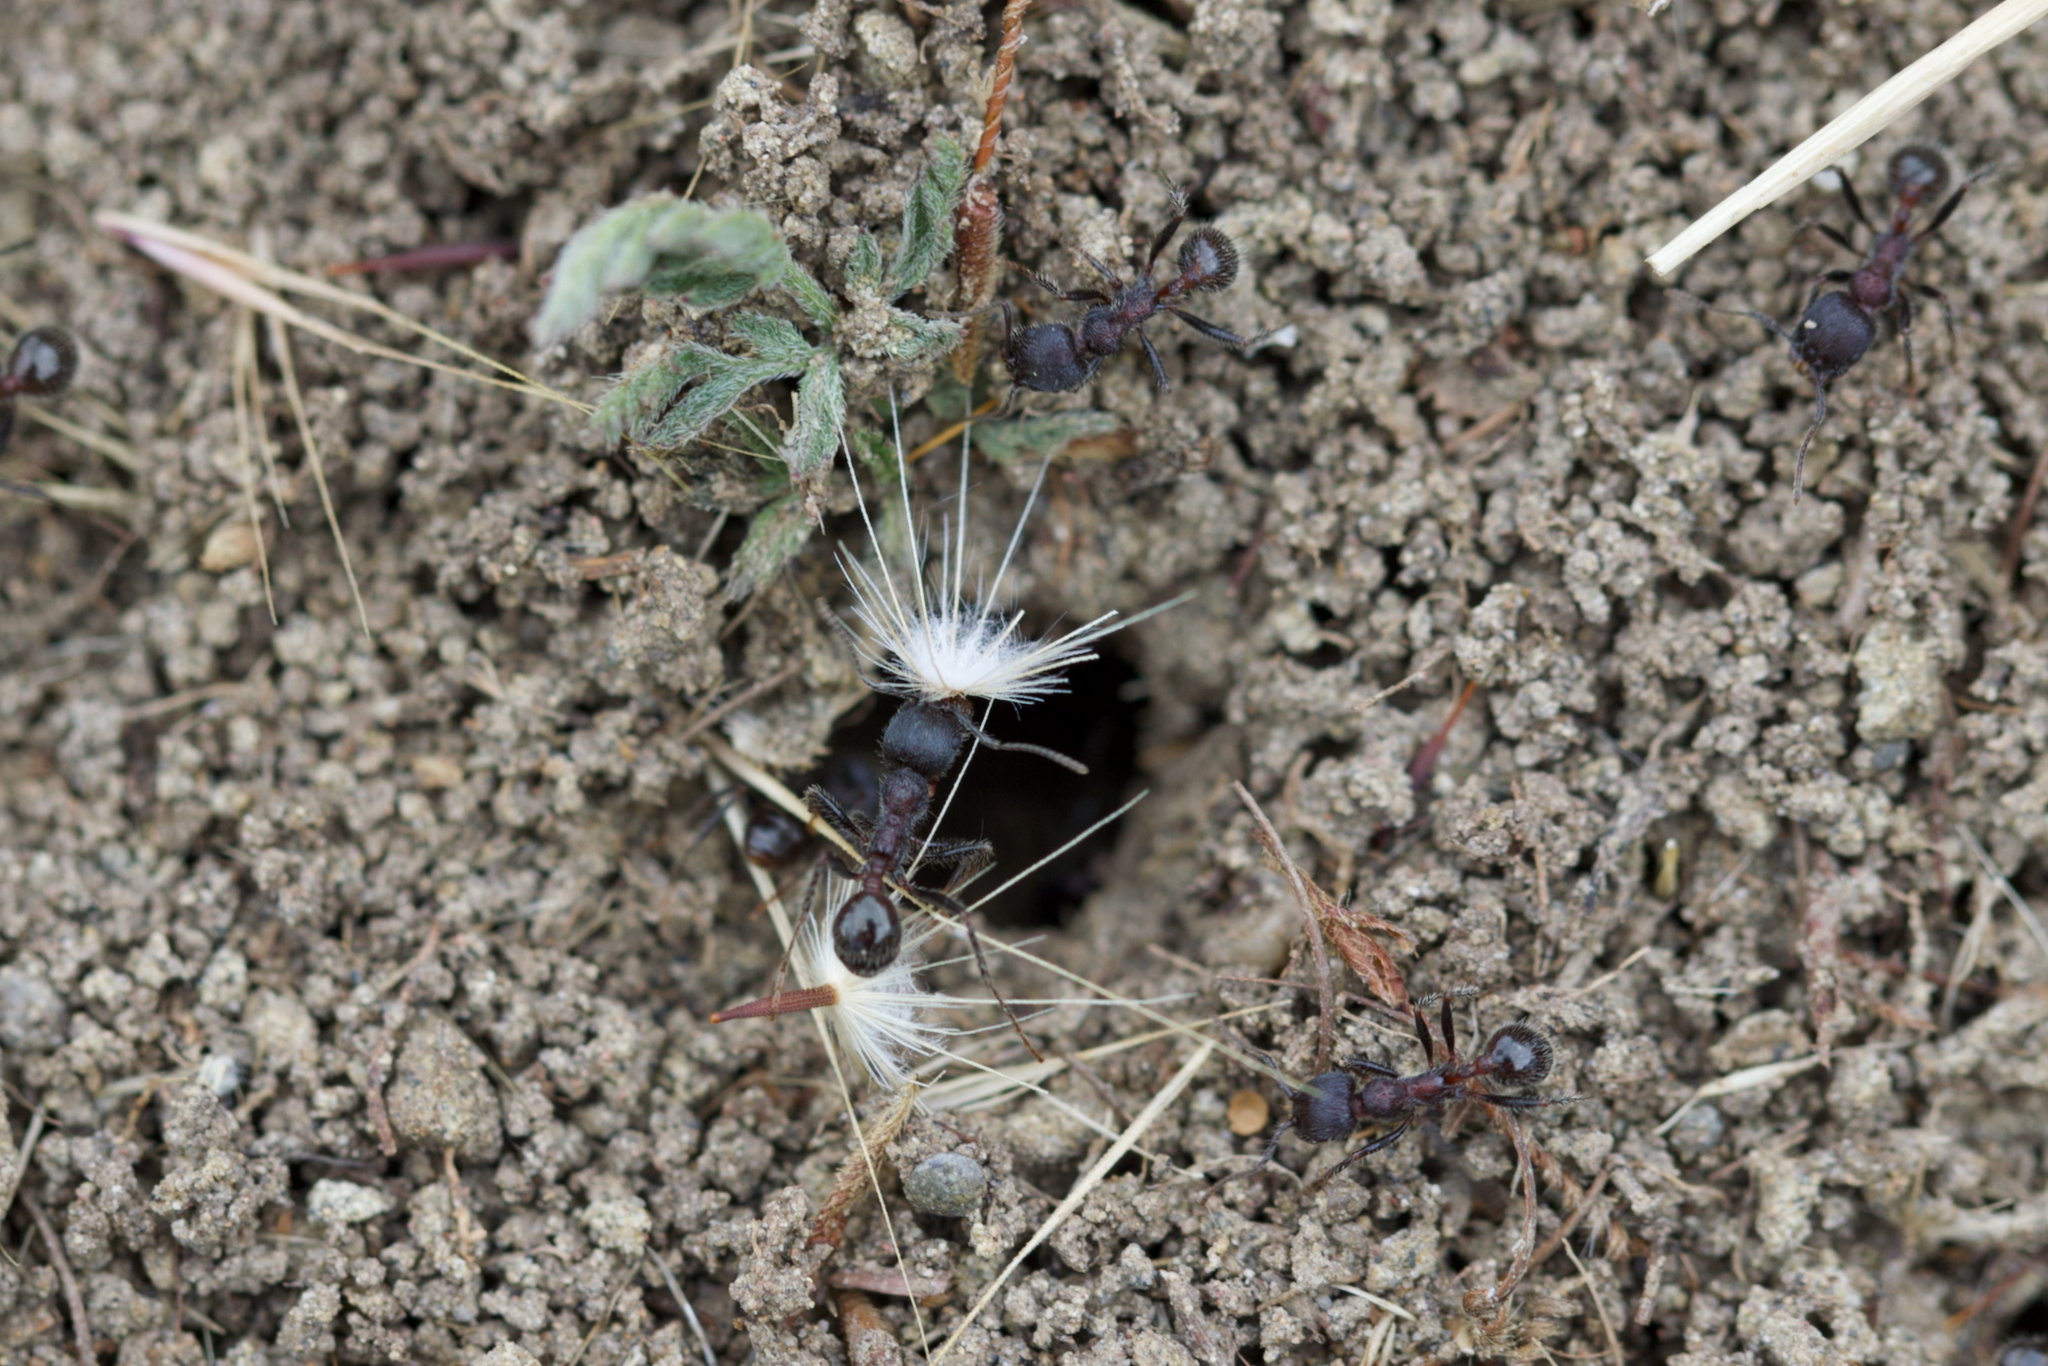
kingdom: Animalia
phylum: Arthropoda
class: Insecta
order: Hymenoptera
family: Formicidae
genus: Veromessor
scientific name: Veromessor andrei
